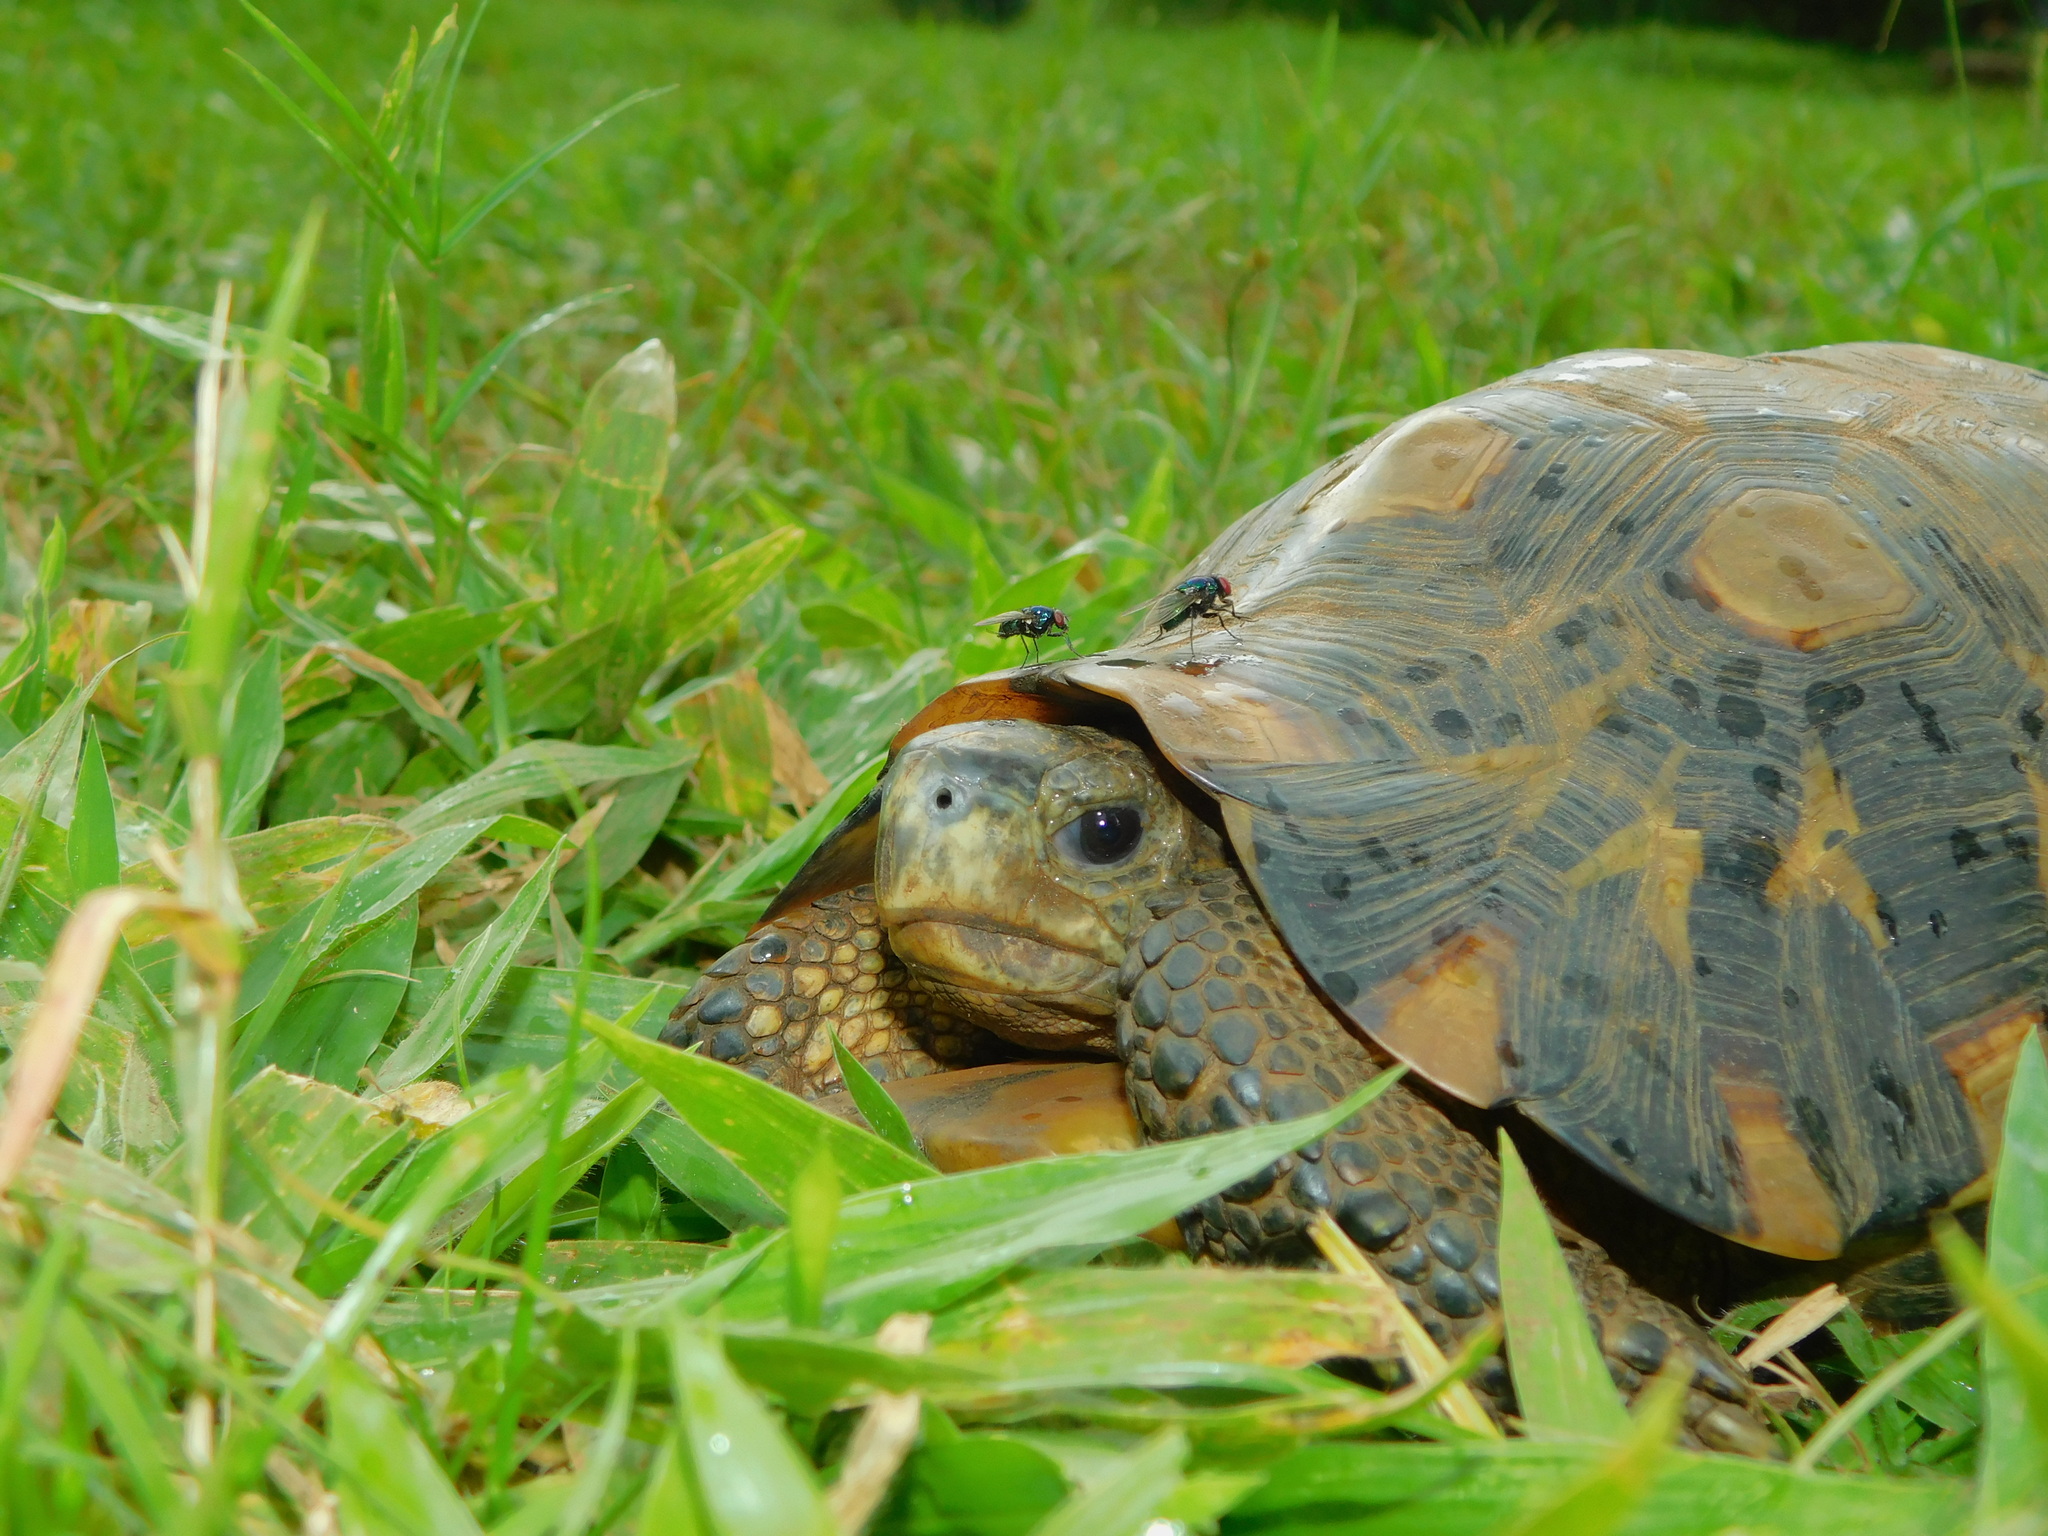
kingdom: Animalia
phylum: Chordata
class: Testudines
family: Testudinidae
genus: Kinixys
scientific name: Kinixys belliana
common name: Bells hinge-back tortoise
